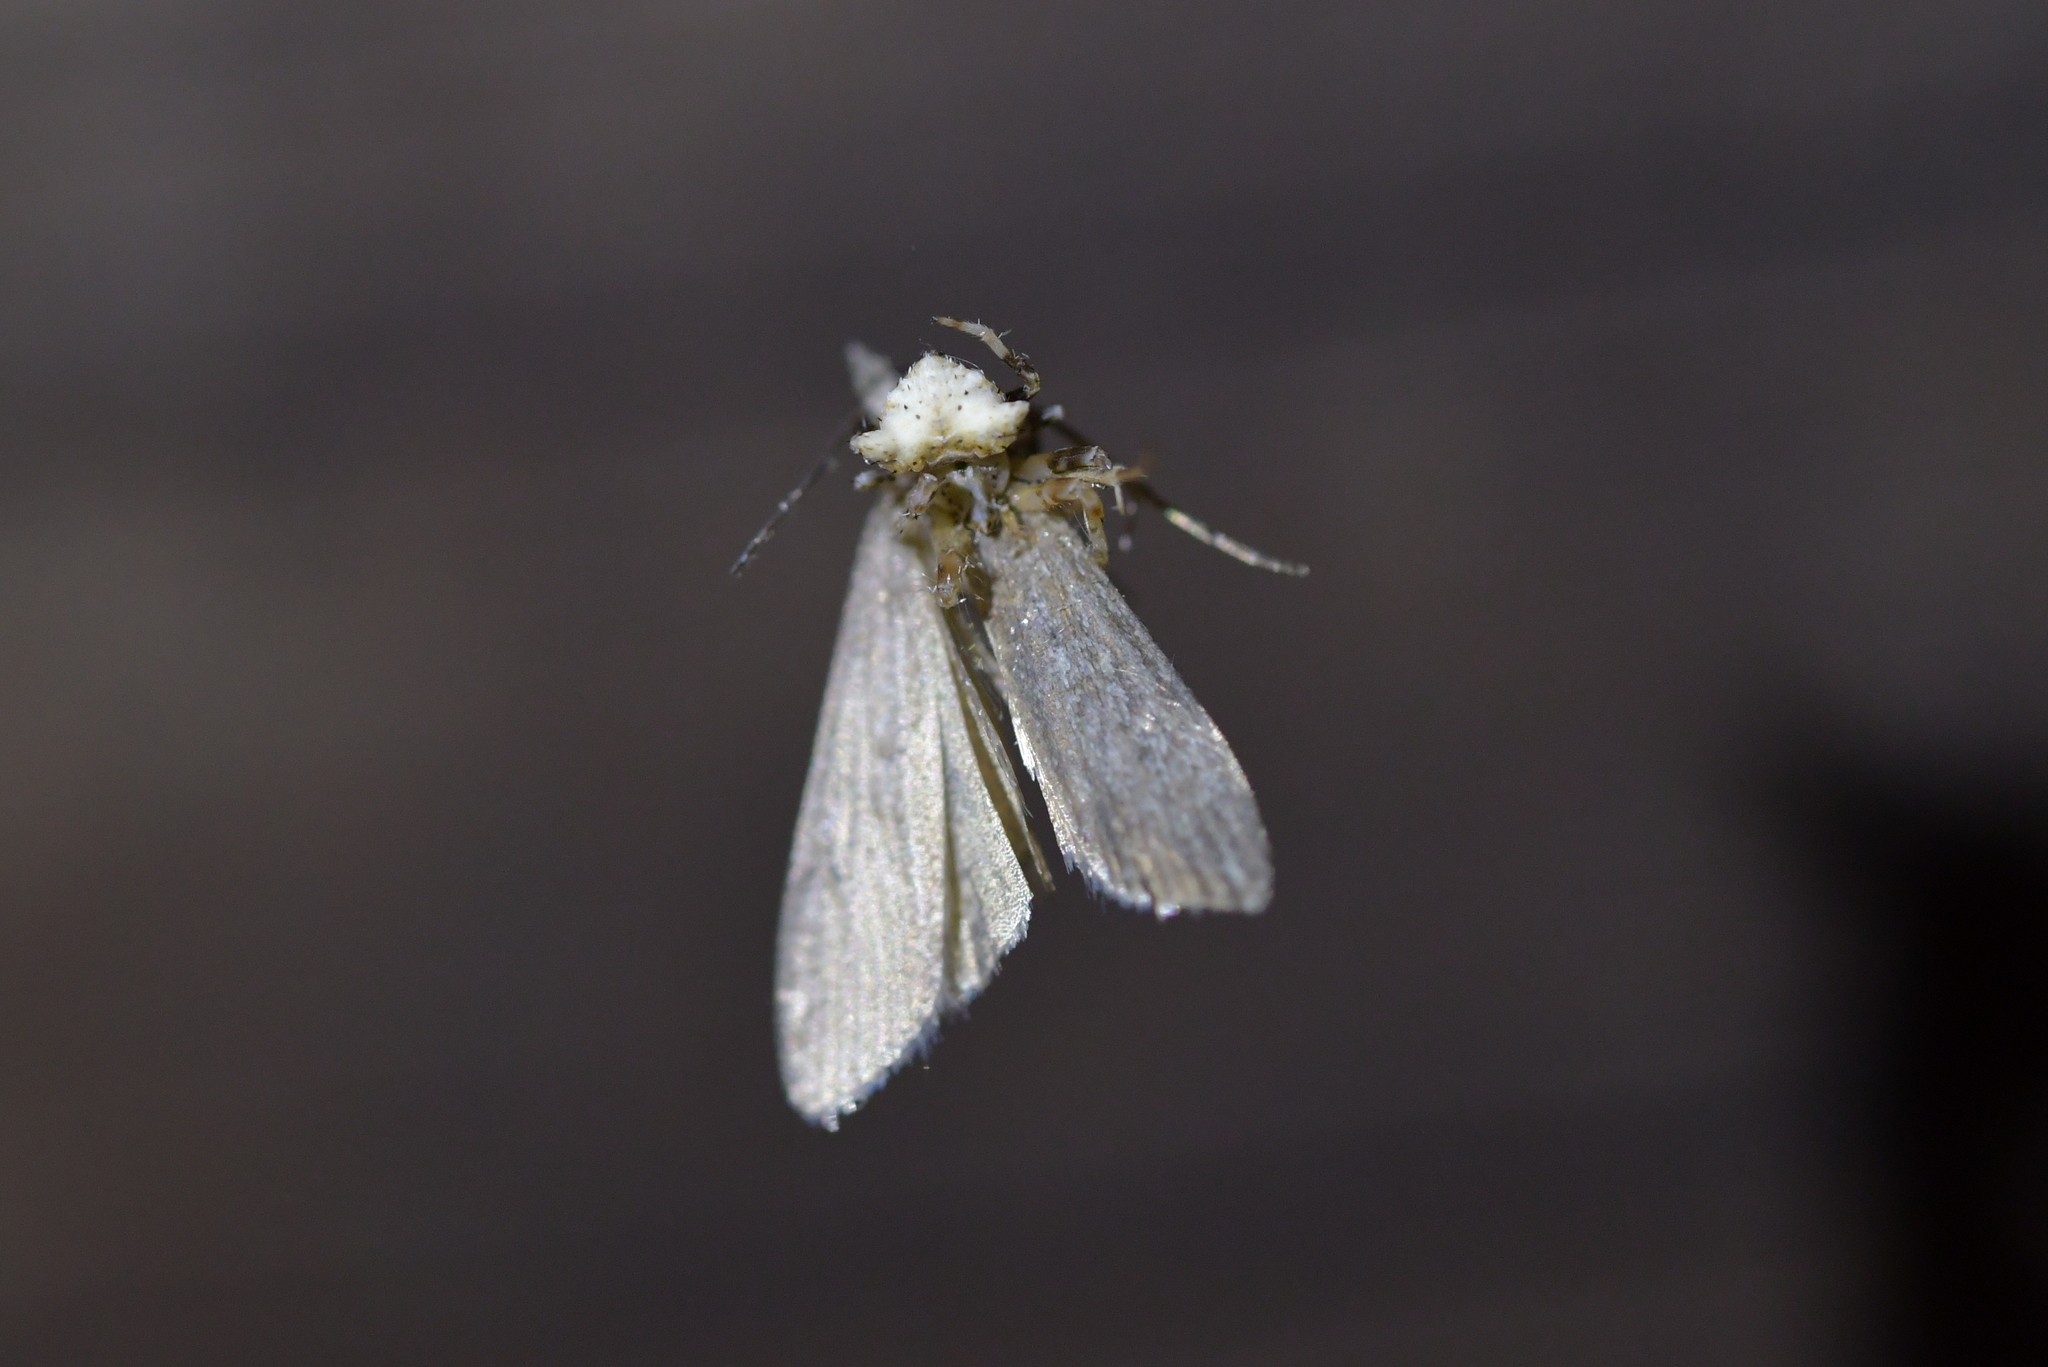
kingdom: Animalia
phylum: Arthropoda
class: Arachnida
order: Araneae
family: Araneidae
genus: Celaenia
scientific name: Celaenia olivacea
